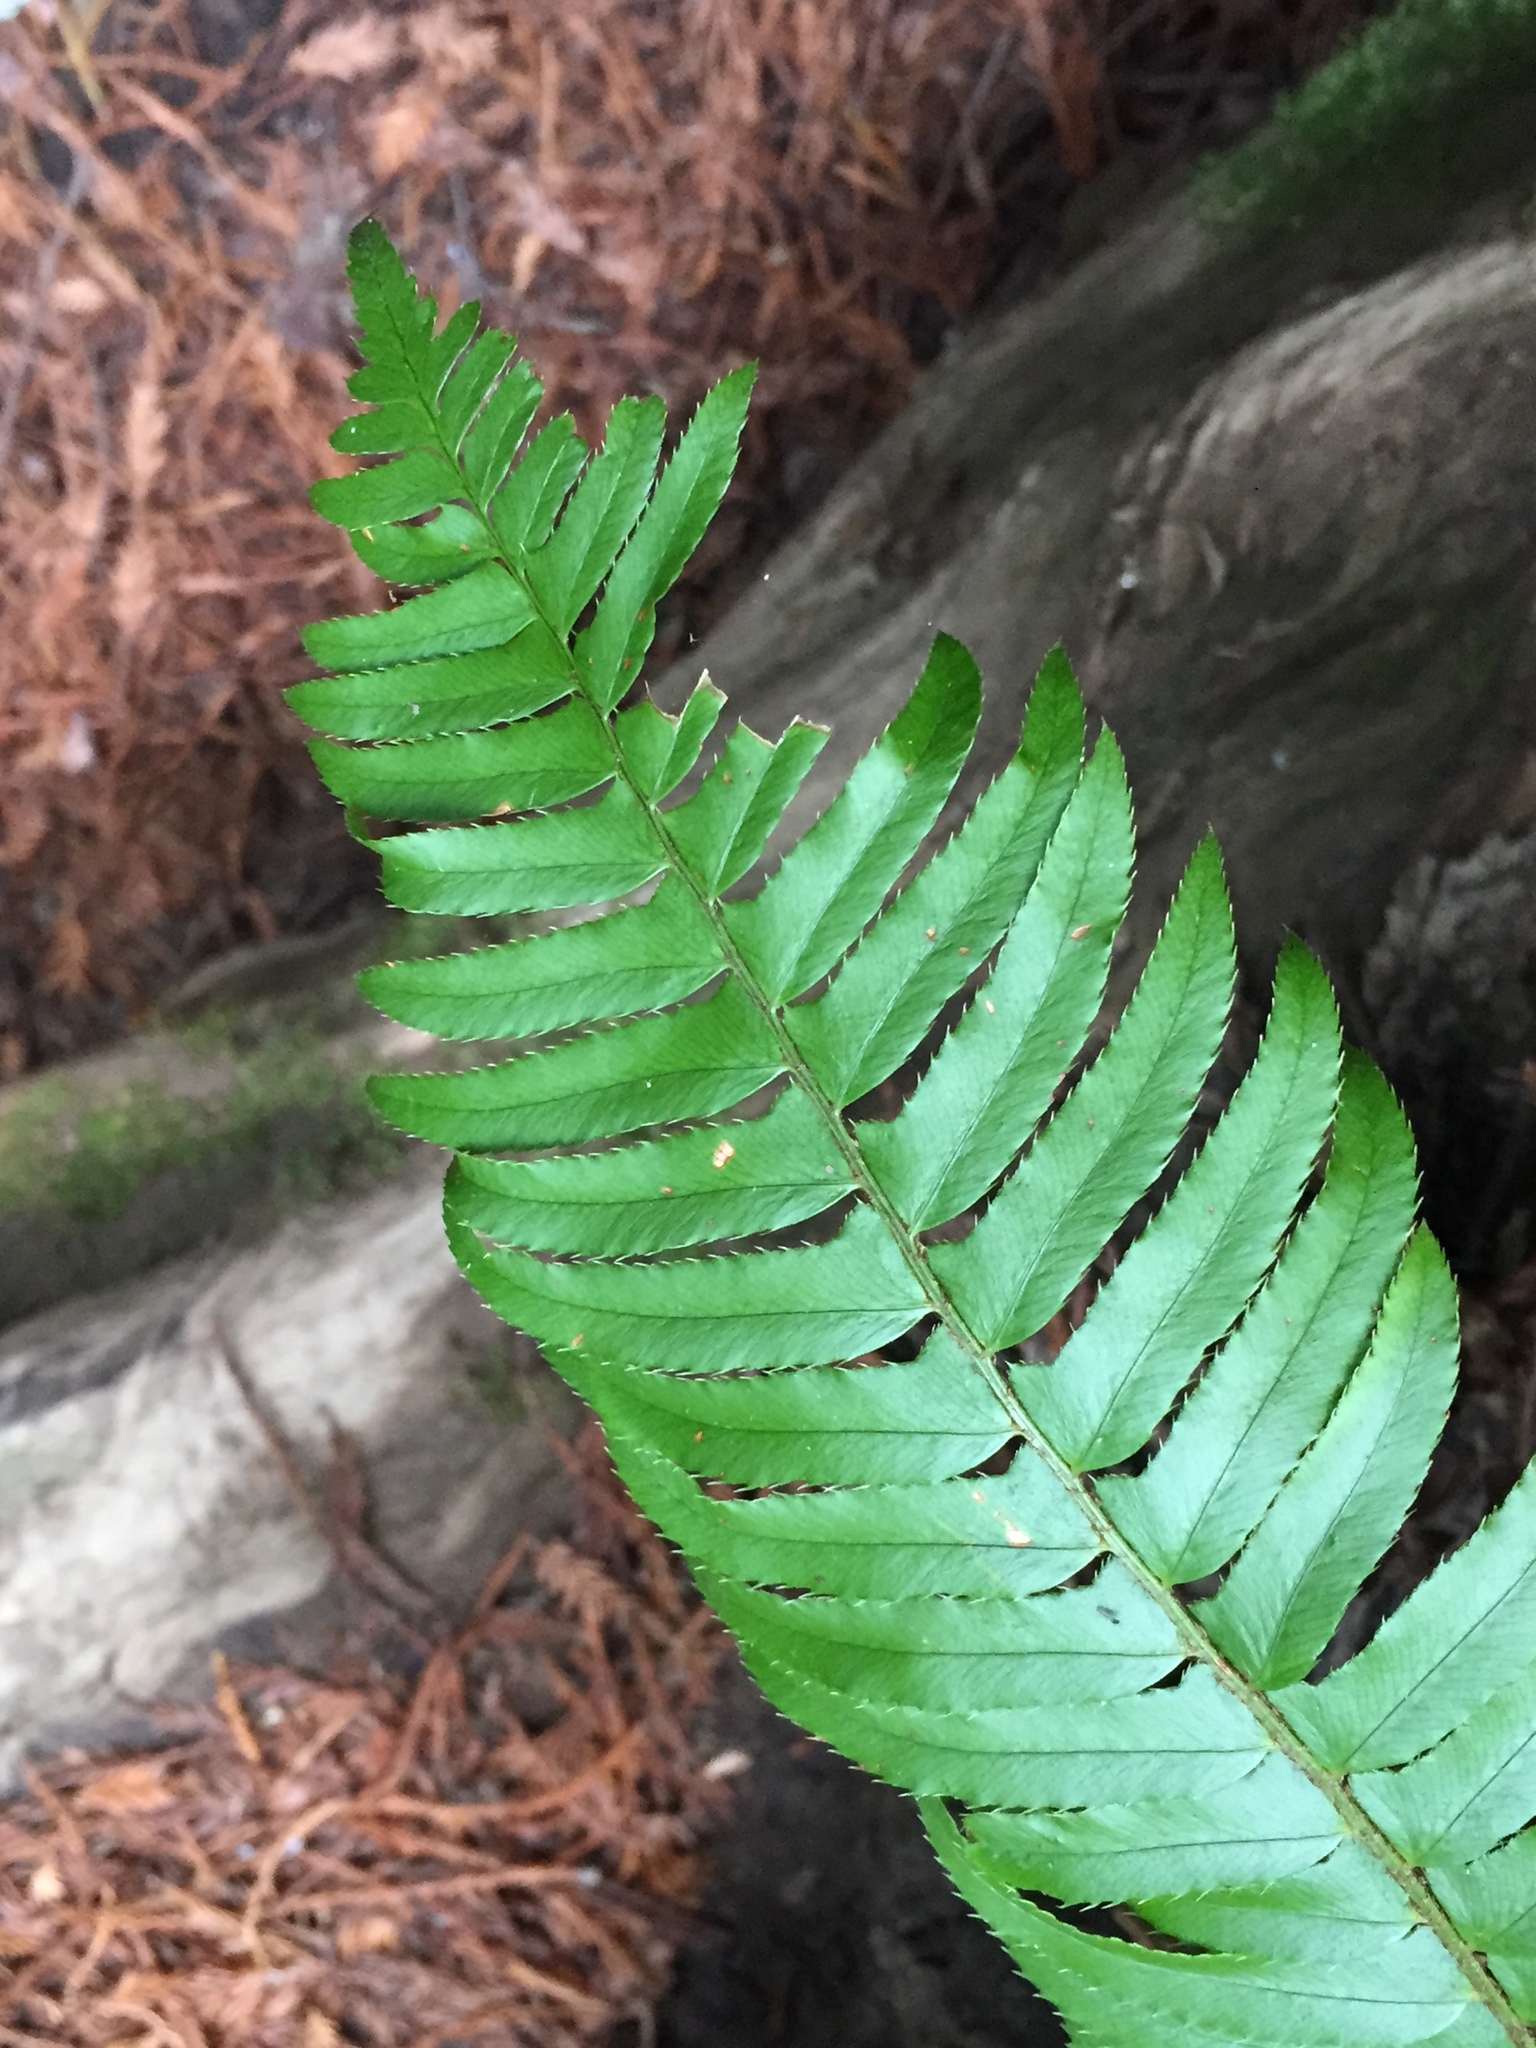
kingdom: Plantae
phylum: Tracheophyta
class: Polypodiopsida
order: Polypodiales
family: Dryopteridaceae
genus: Polystichum
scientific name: Polystichum munitum
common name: Western sword-fern
